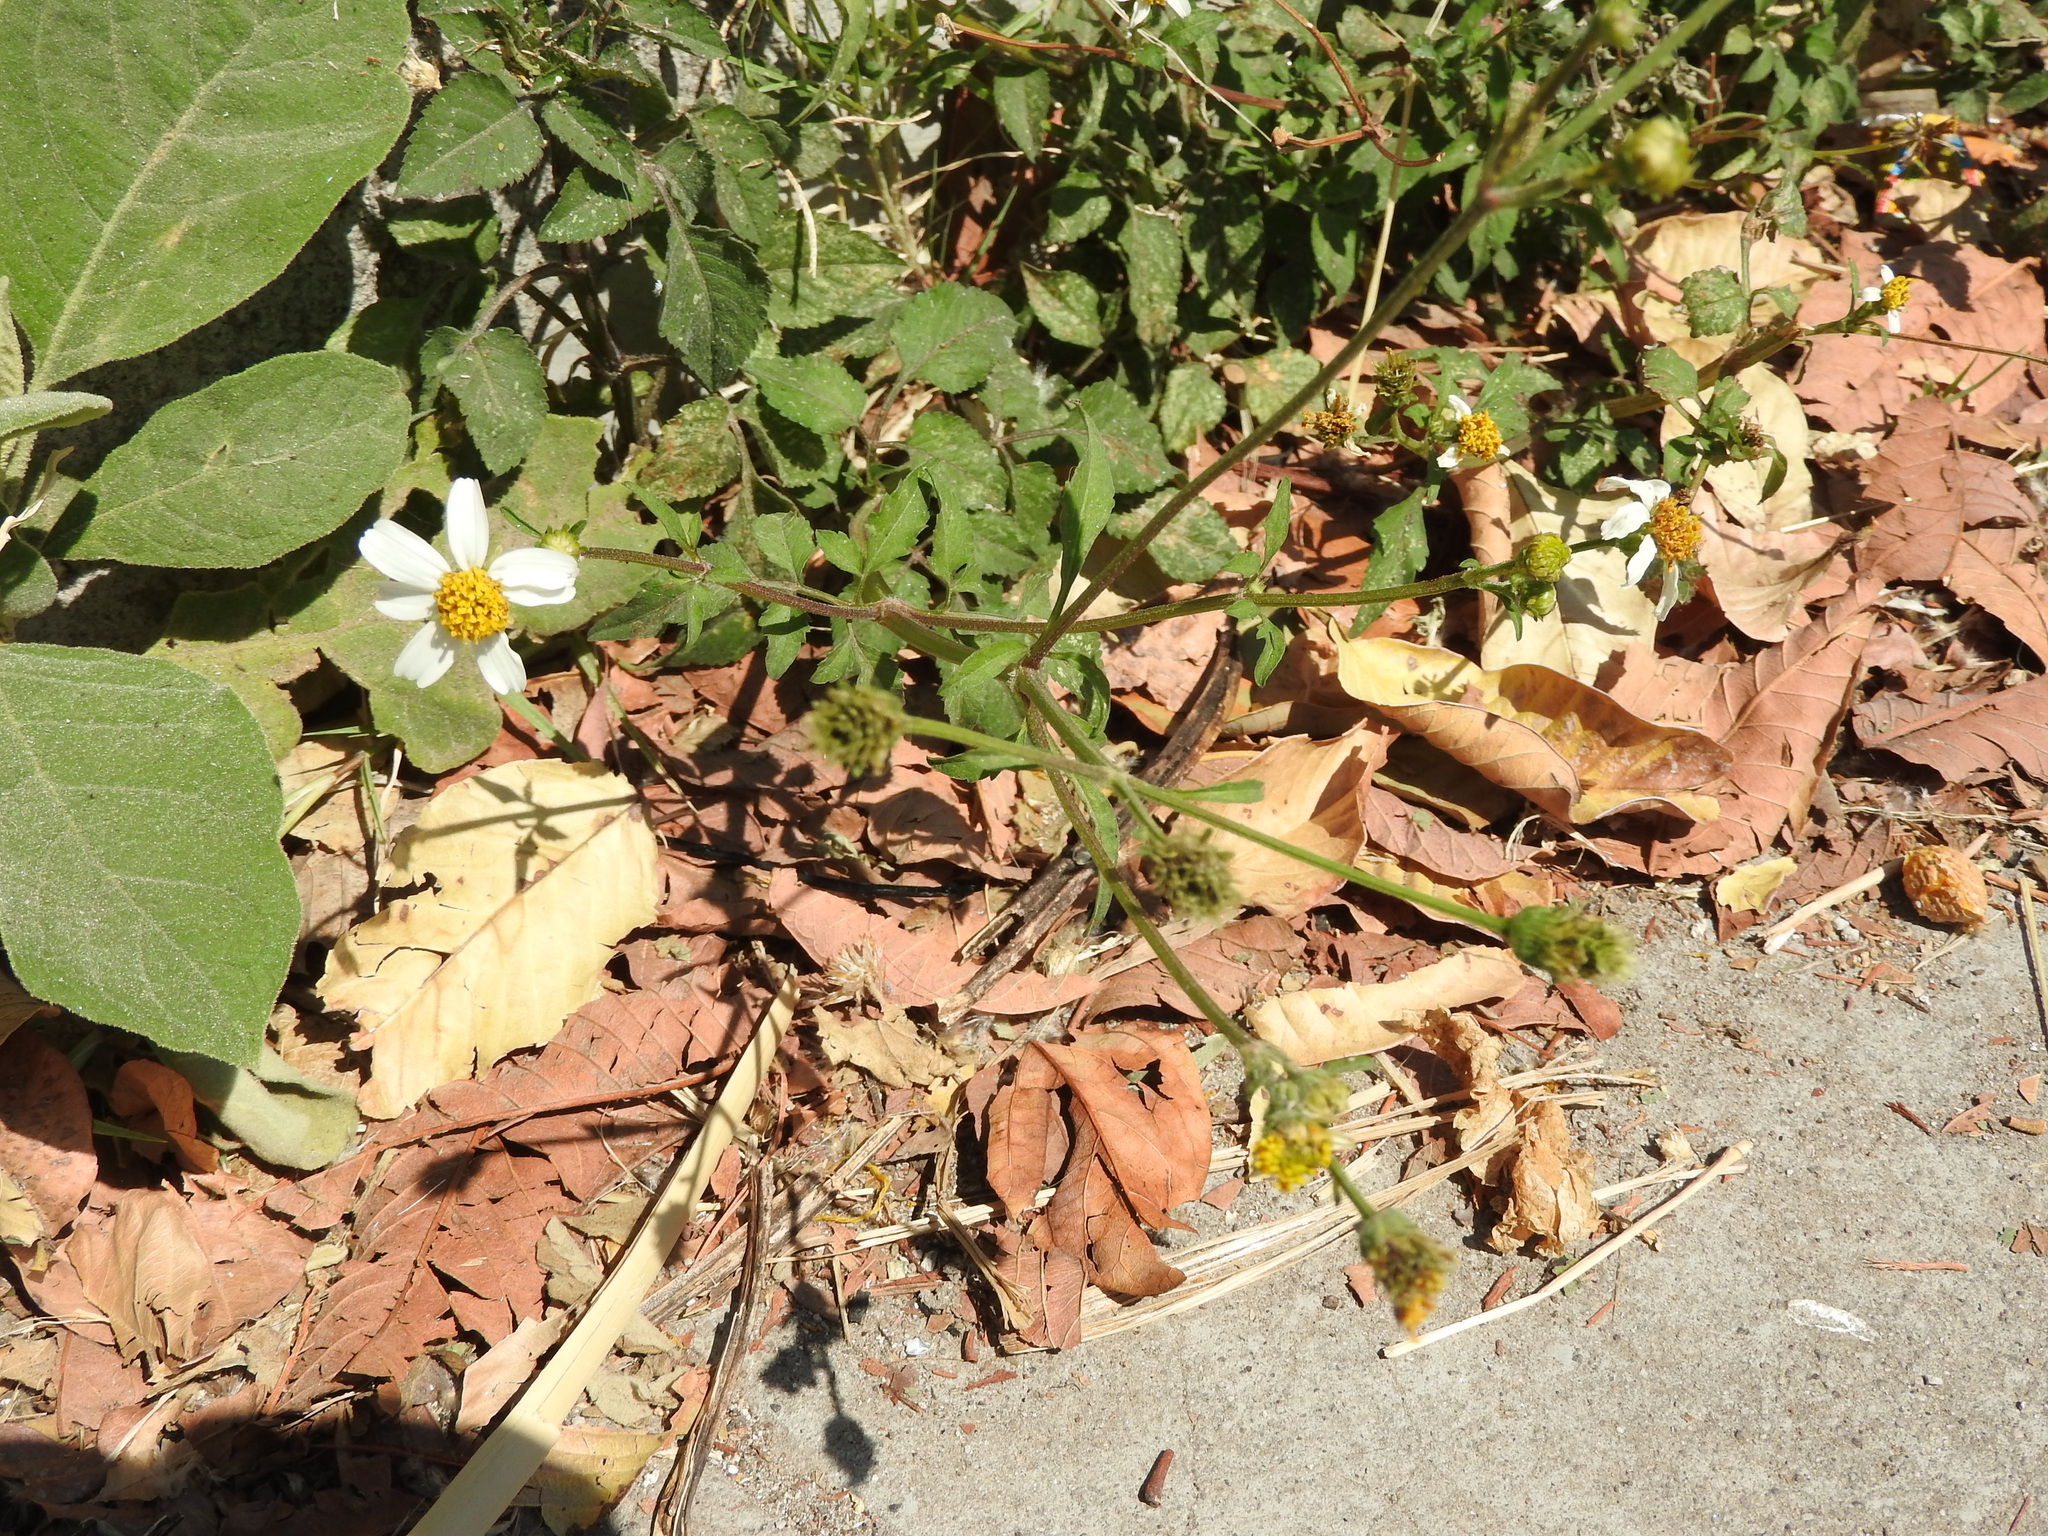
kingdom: Plantae
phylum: Tracheophyta
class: Magnoliopsida
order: Asterales
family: Asteraceae
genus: Bidens
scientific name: Bidens odorata
